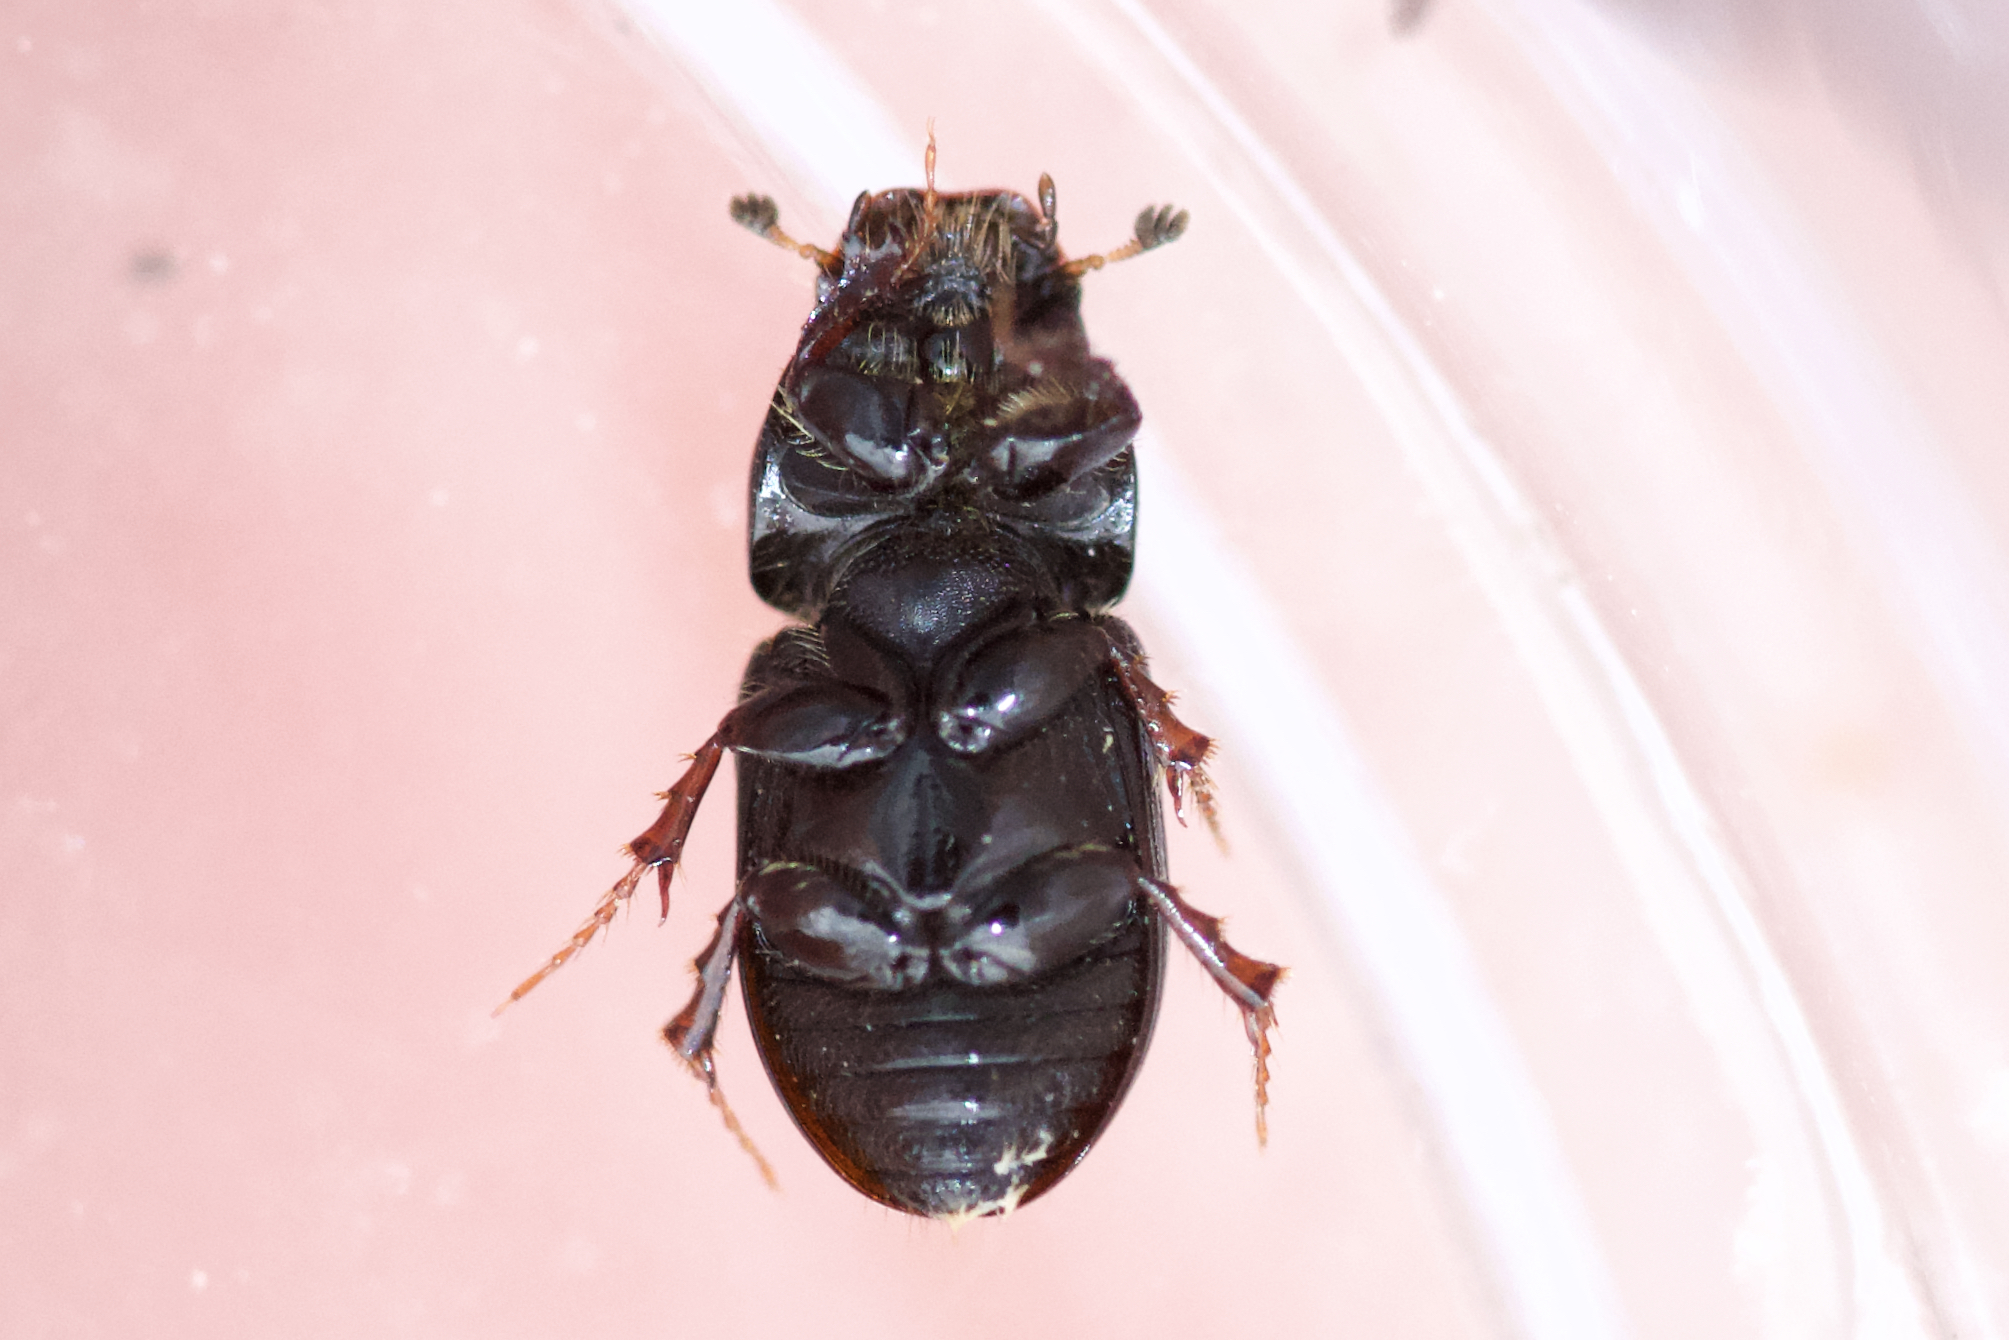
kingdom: Animalia
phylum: Arthropoda
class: Insecta
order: Coleoptera
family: Scarabaeidae
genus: Oscarinus
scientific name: Oscarinus rusicola
